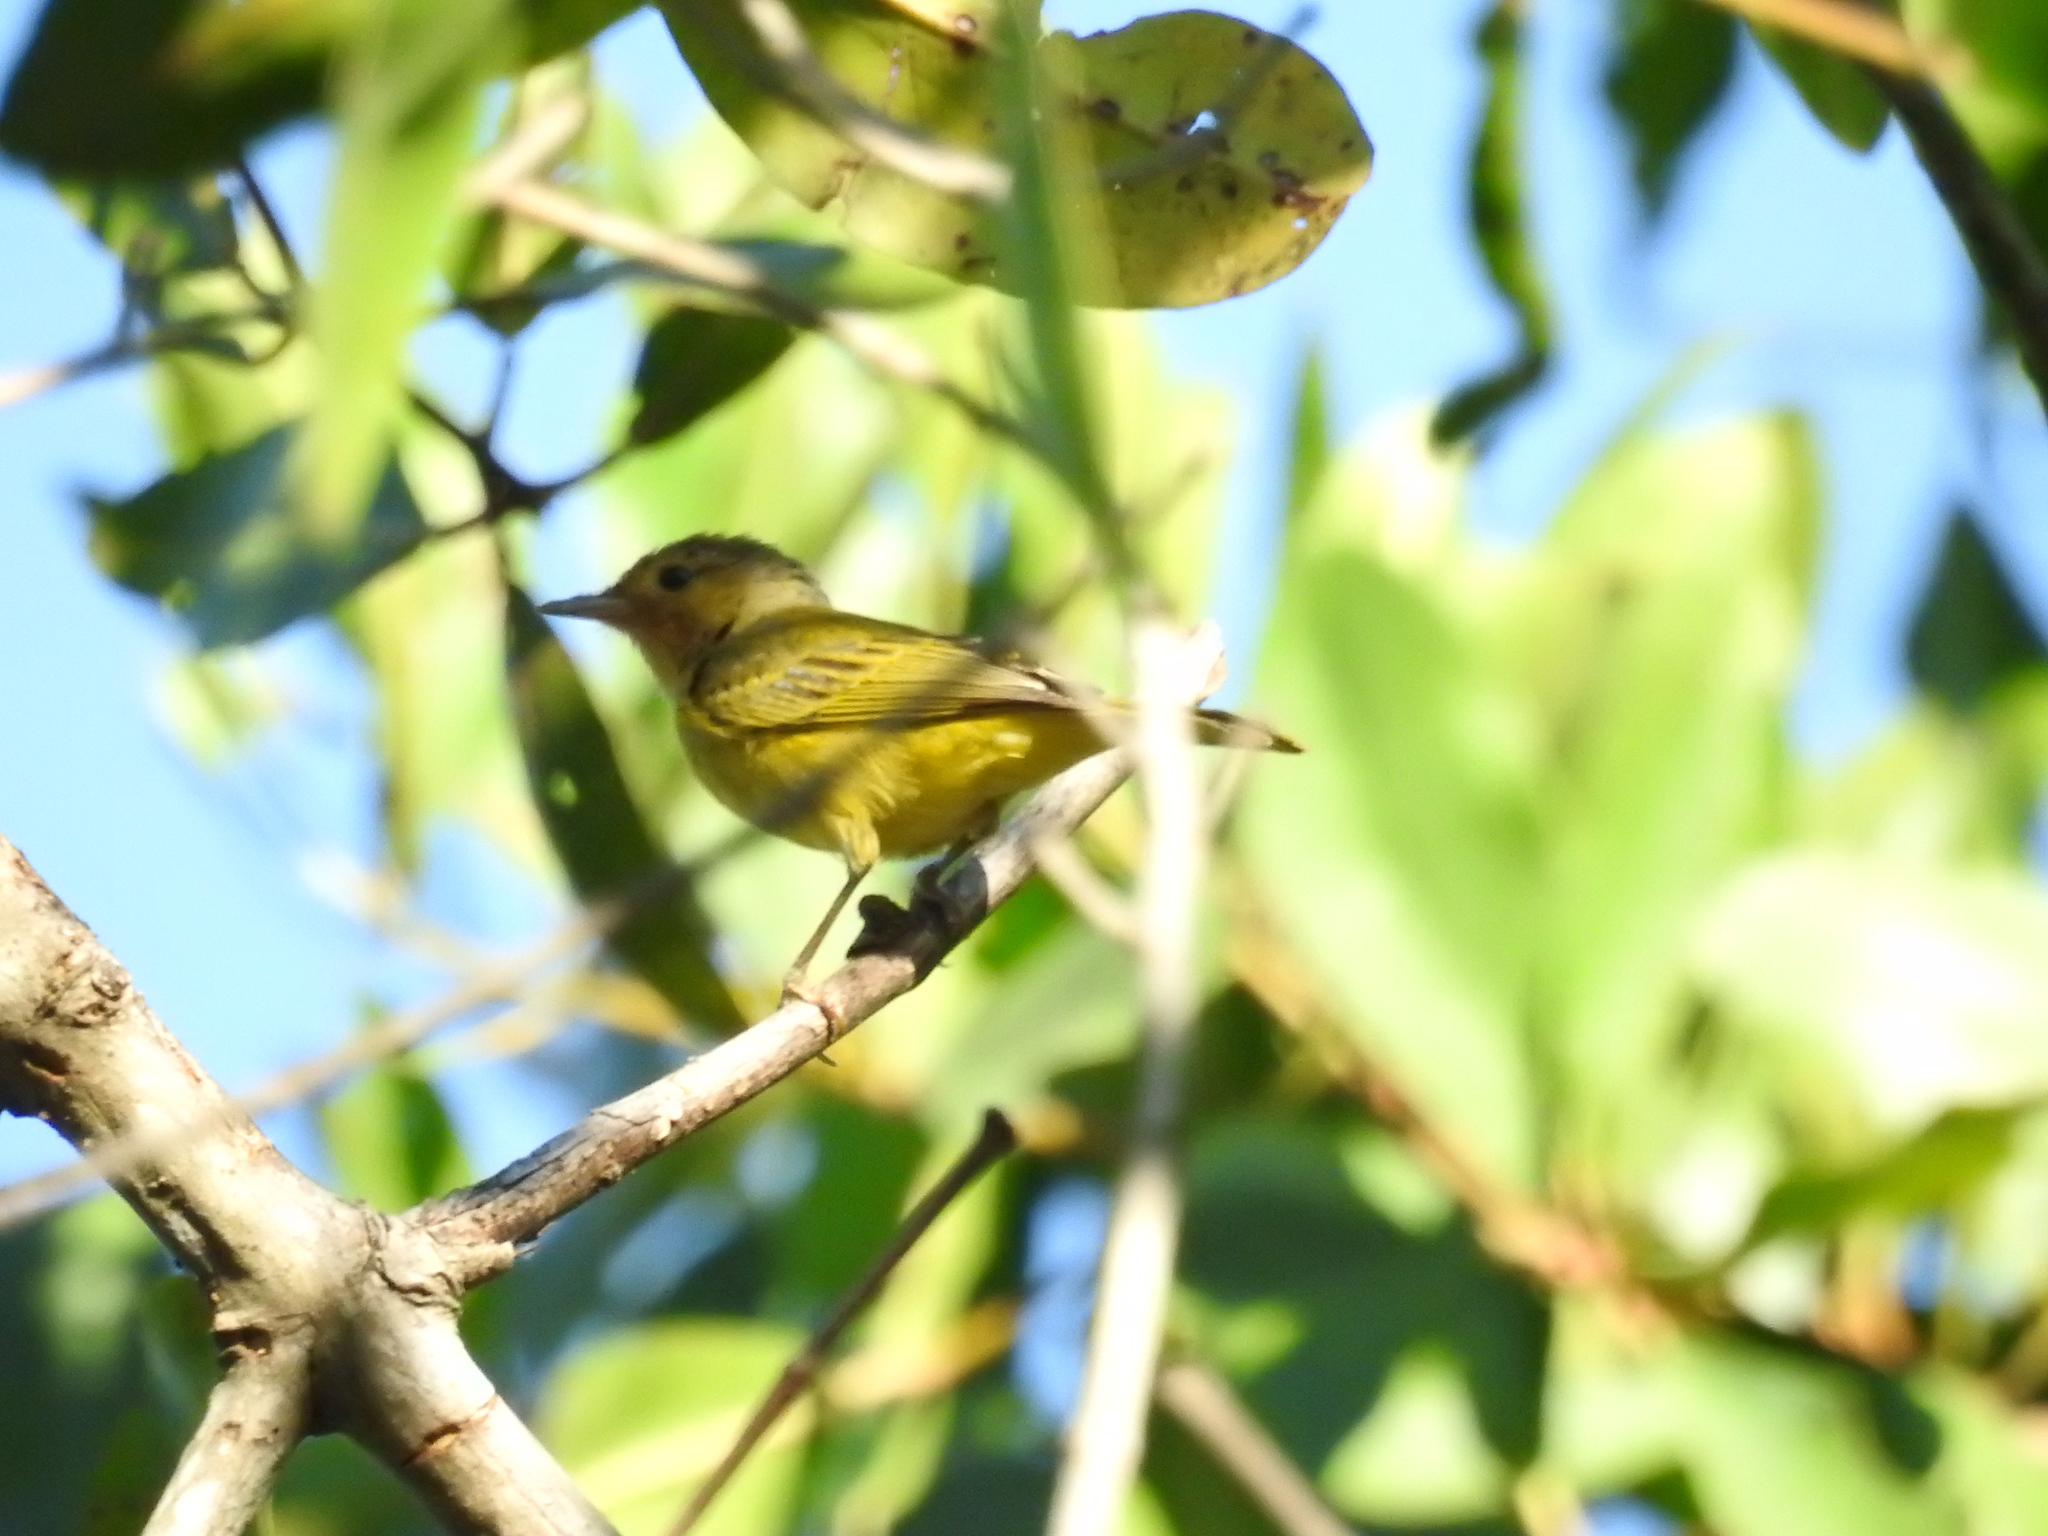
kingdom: Animalia
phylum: Chordata
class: Aves
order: Passeriformes
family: Parulidae
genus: Setophaga
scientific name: Setophaga petechia
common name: Yellow warbler
